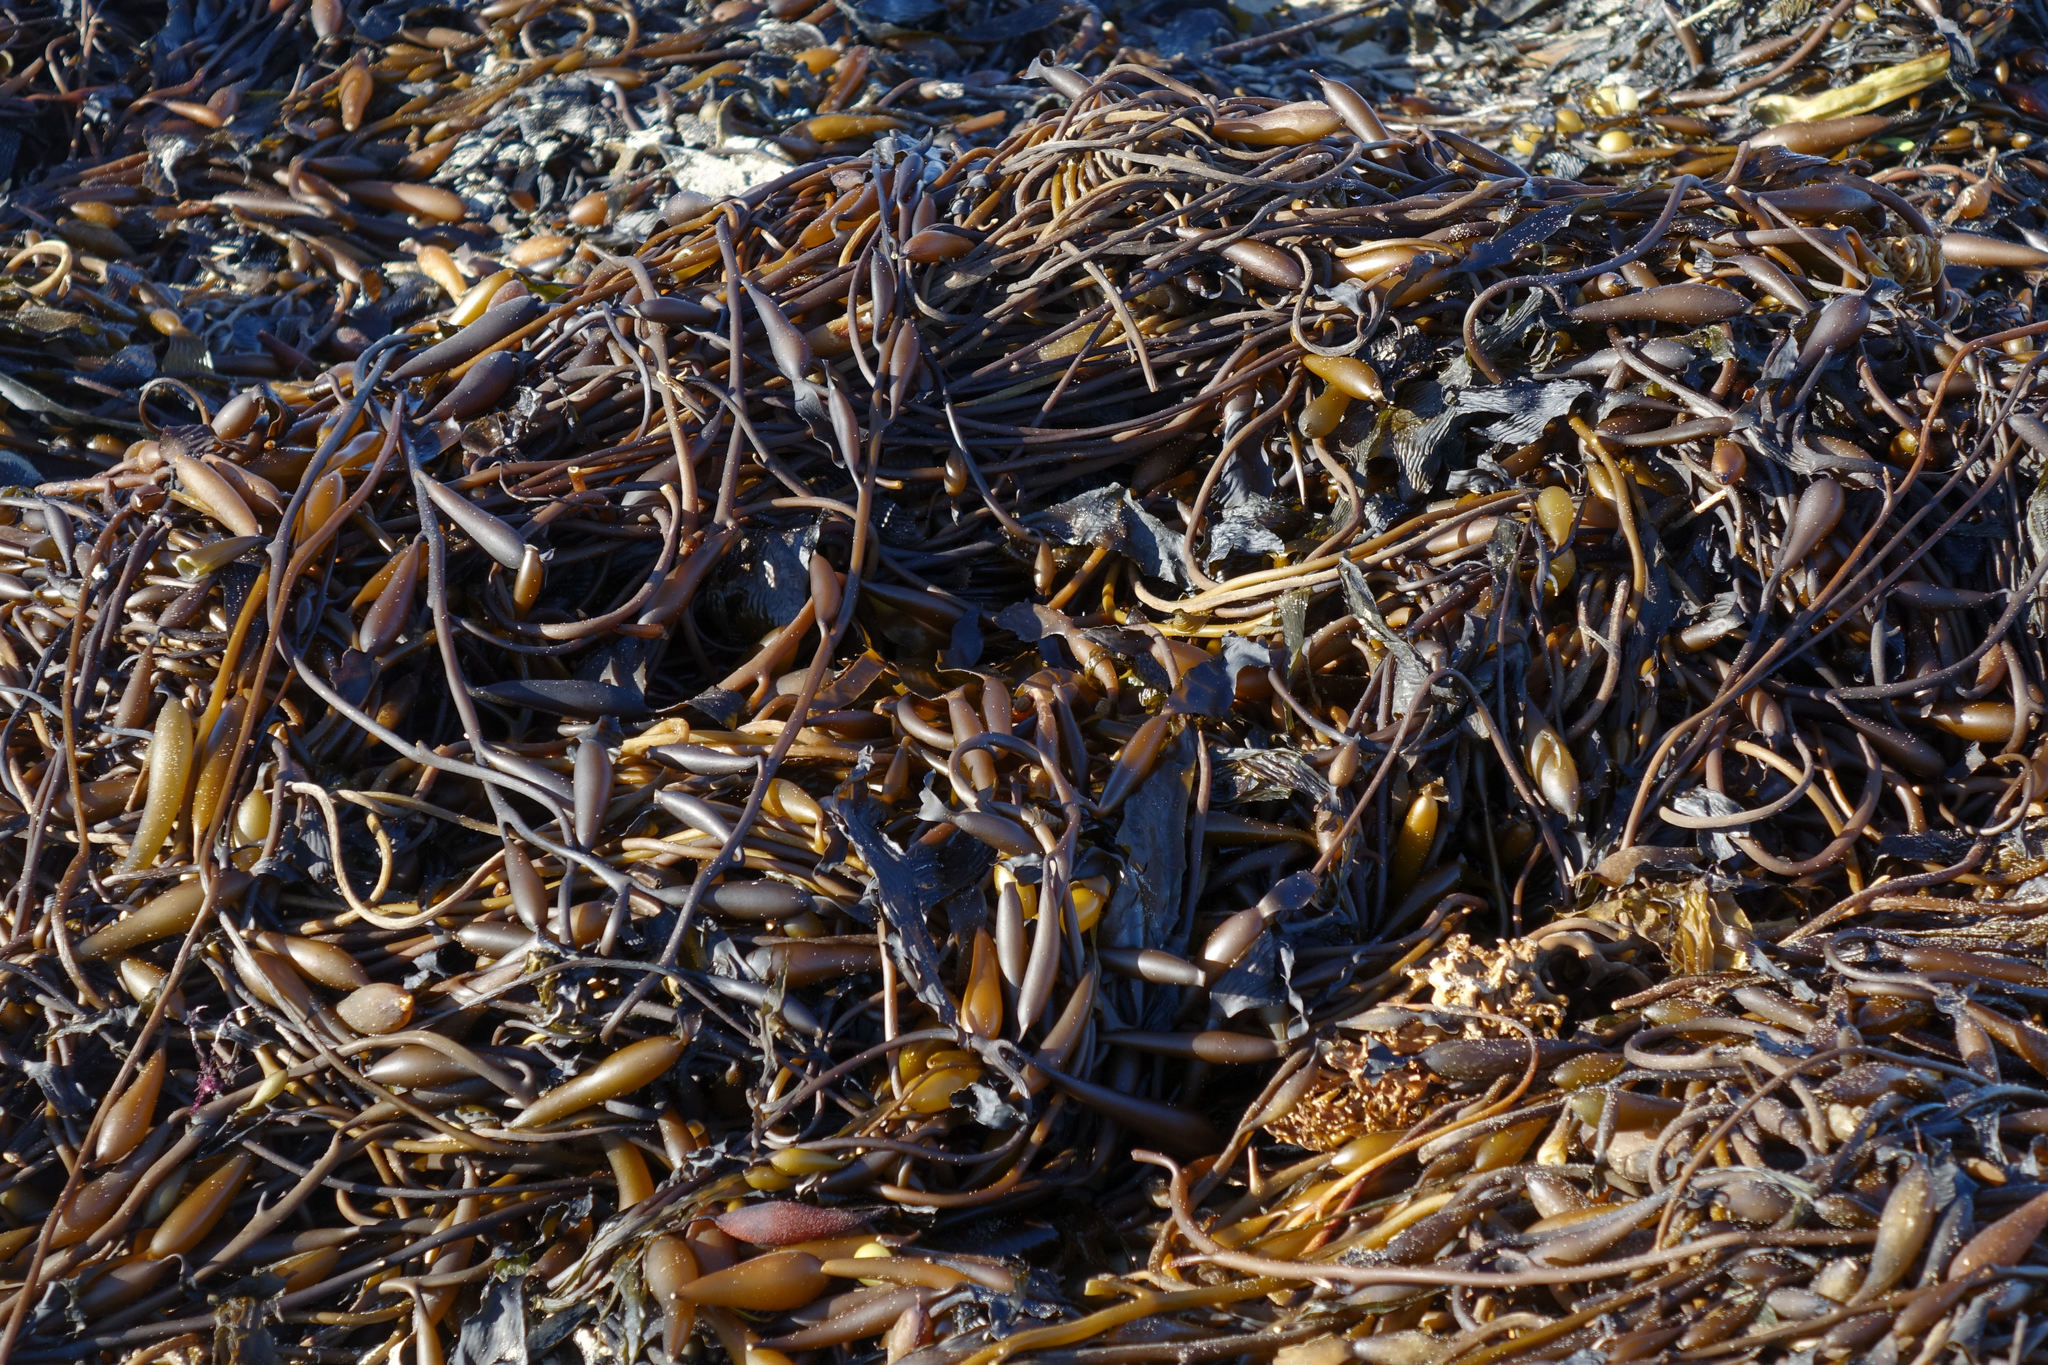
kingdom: Chromista
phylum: Ochrophyta
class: Phaeophyceae
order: Laminariales
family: Laminariaceae
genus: Macrocystis
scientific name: Macrocystis pyrifera
